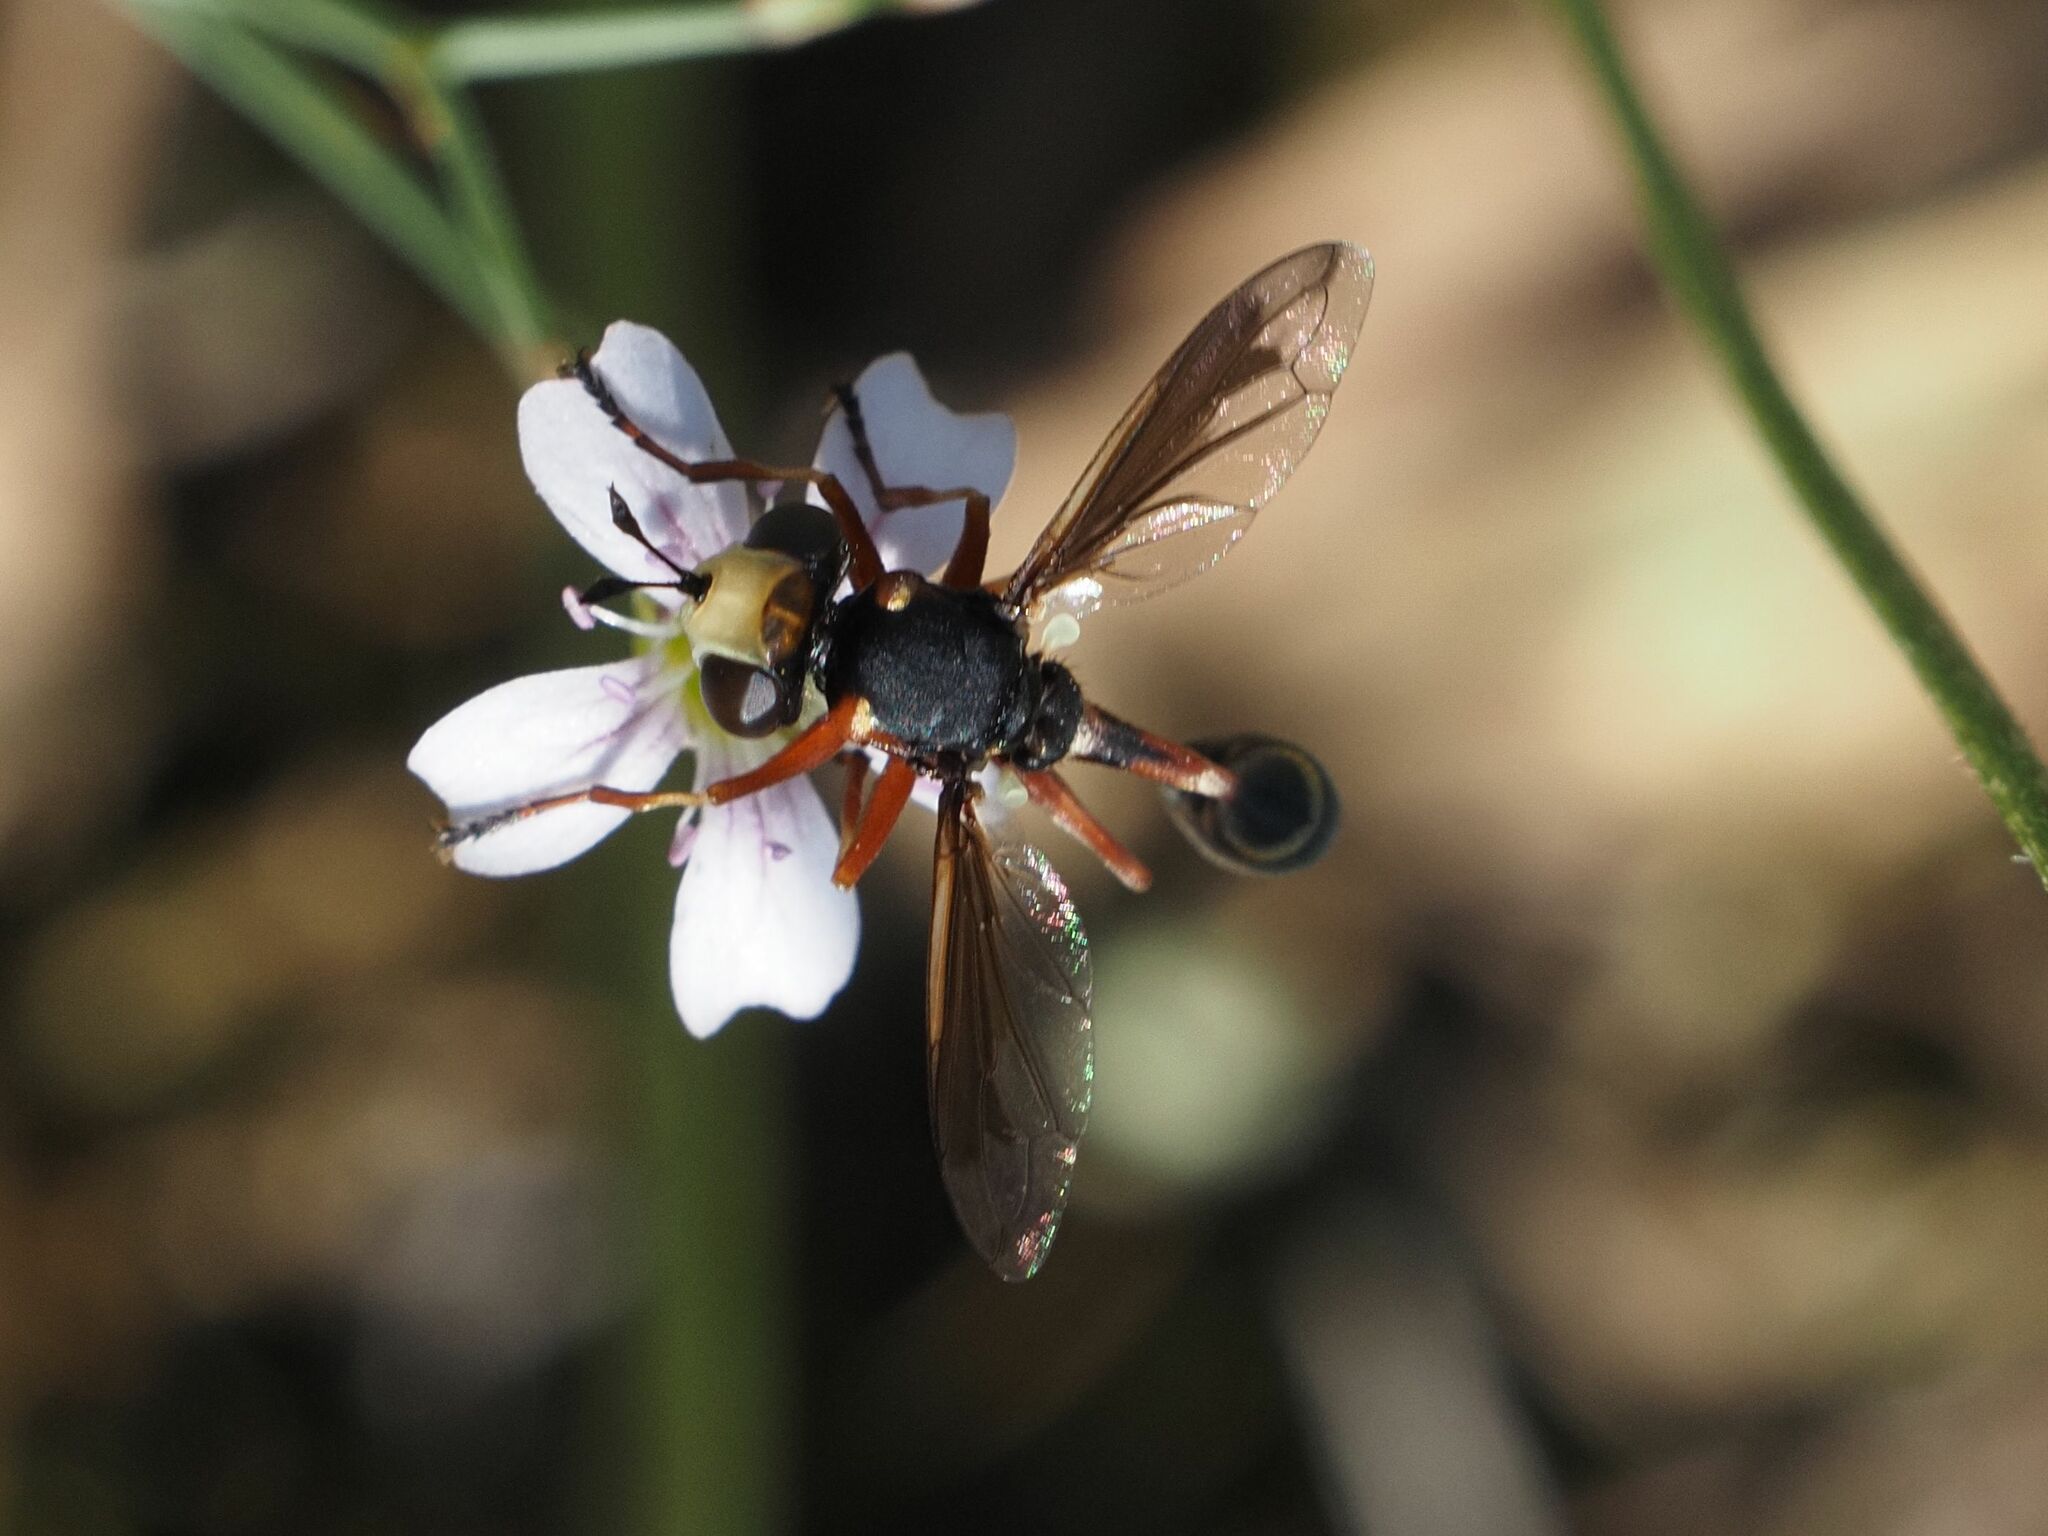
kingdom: Animalia
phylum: Arthropoda
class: Insecta
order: Diptera
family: Conopidae
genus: Physocephala
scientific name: Physocephala vittata
